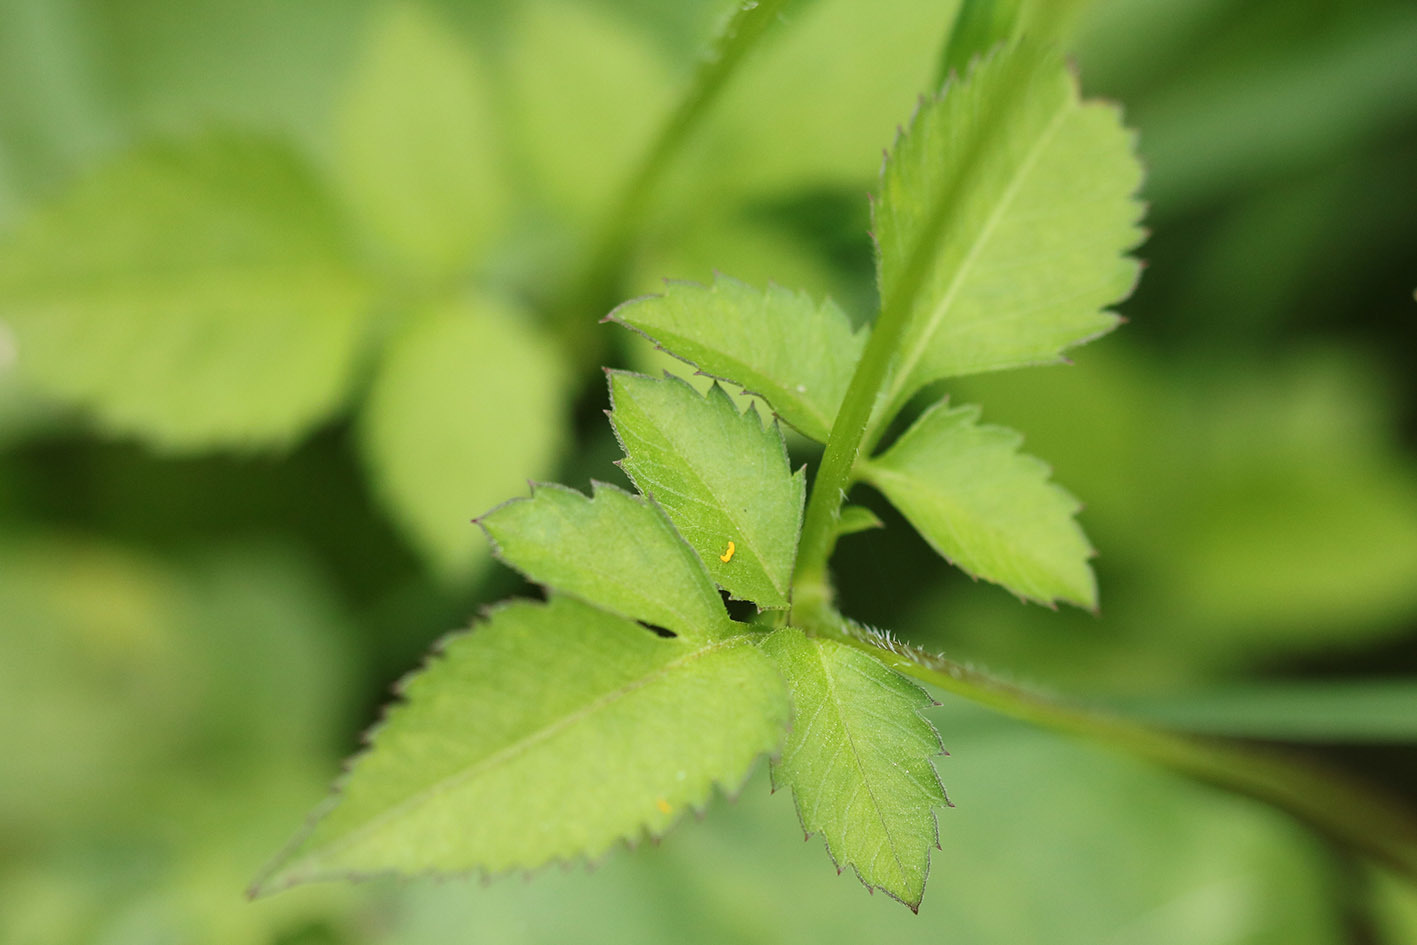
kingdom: Plantae
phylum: Tracheophyta
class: Magnoliopsida
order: Asterales
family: Asteraceae
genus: Bidens
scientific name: Bidens pilosa
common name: Black-jack
